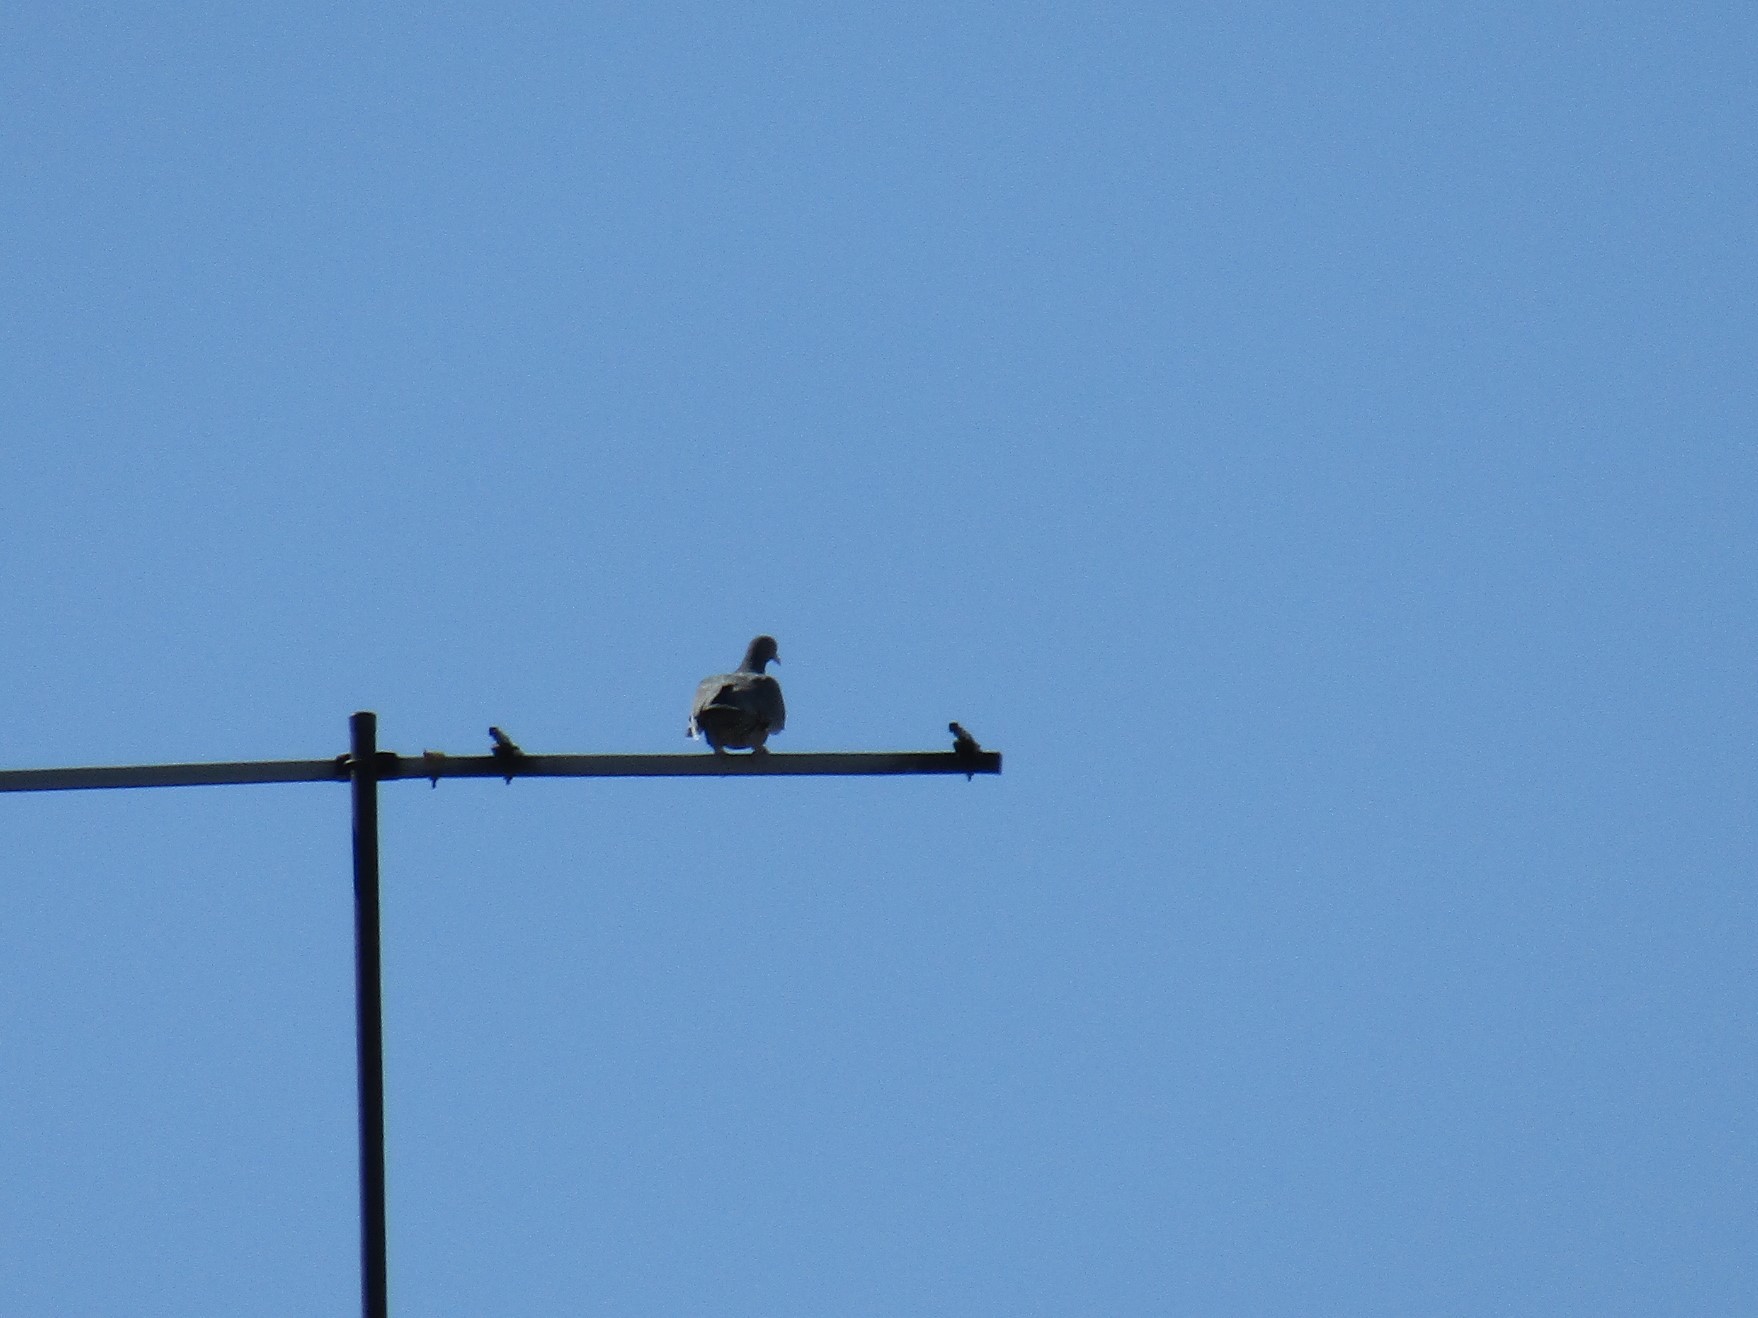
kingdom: Animalia
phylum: Chordata
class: Aves
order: Columbiformes
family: Columbidae
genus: Patagioenas
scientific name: Patagioenas picazuro
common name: Picazuro pigeon
